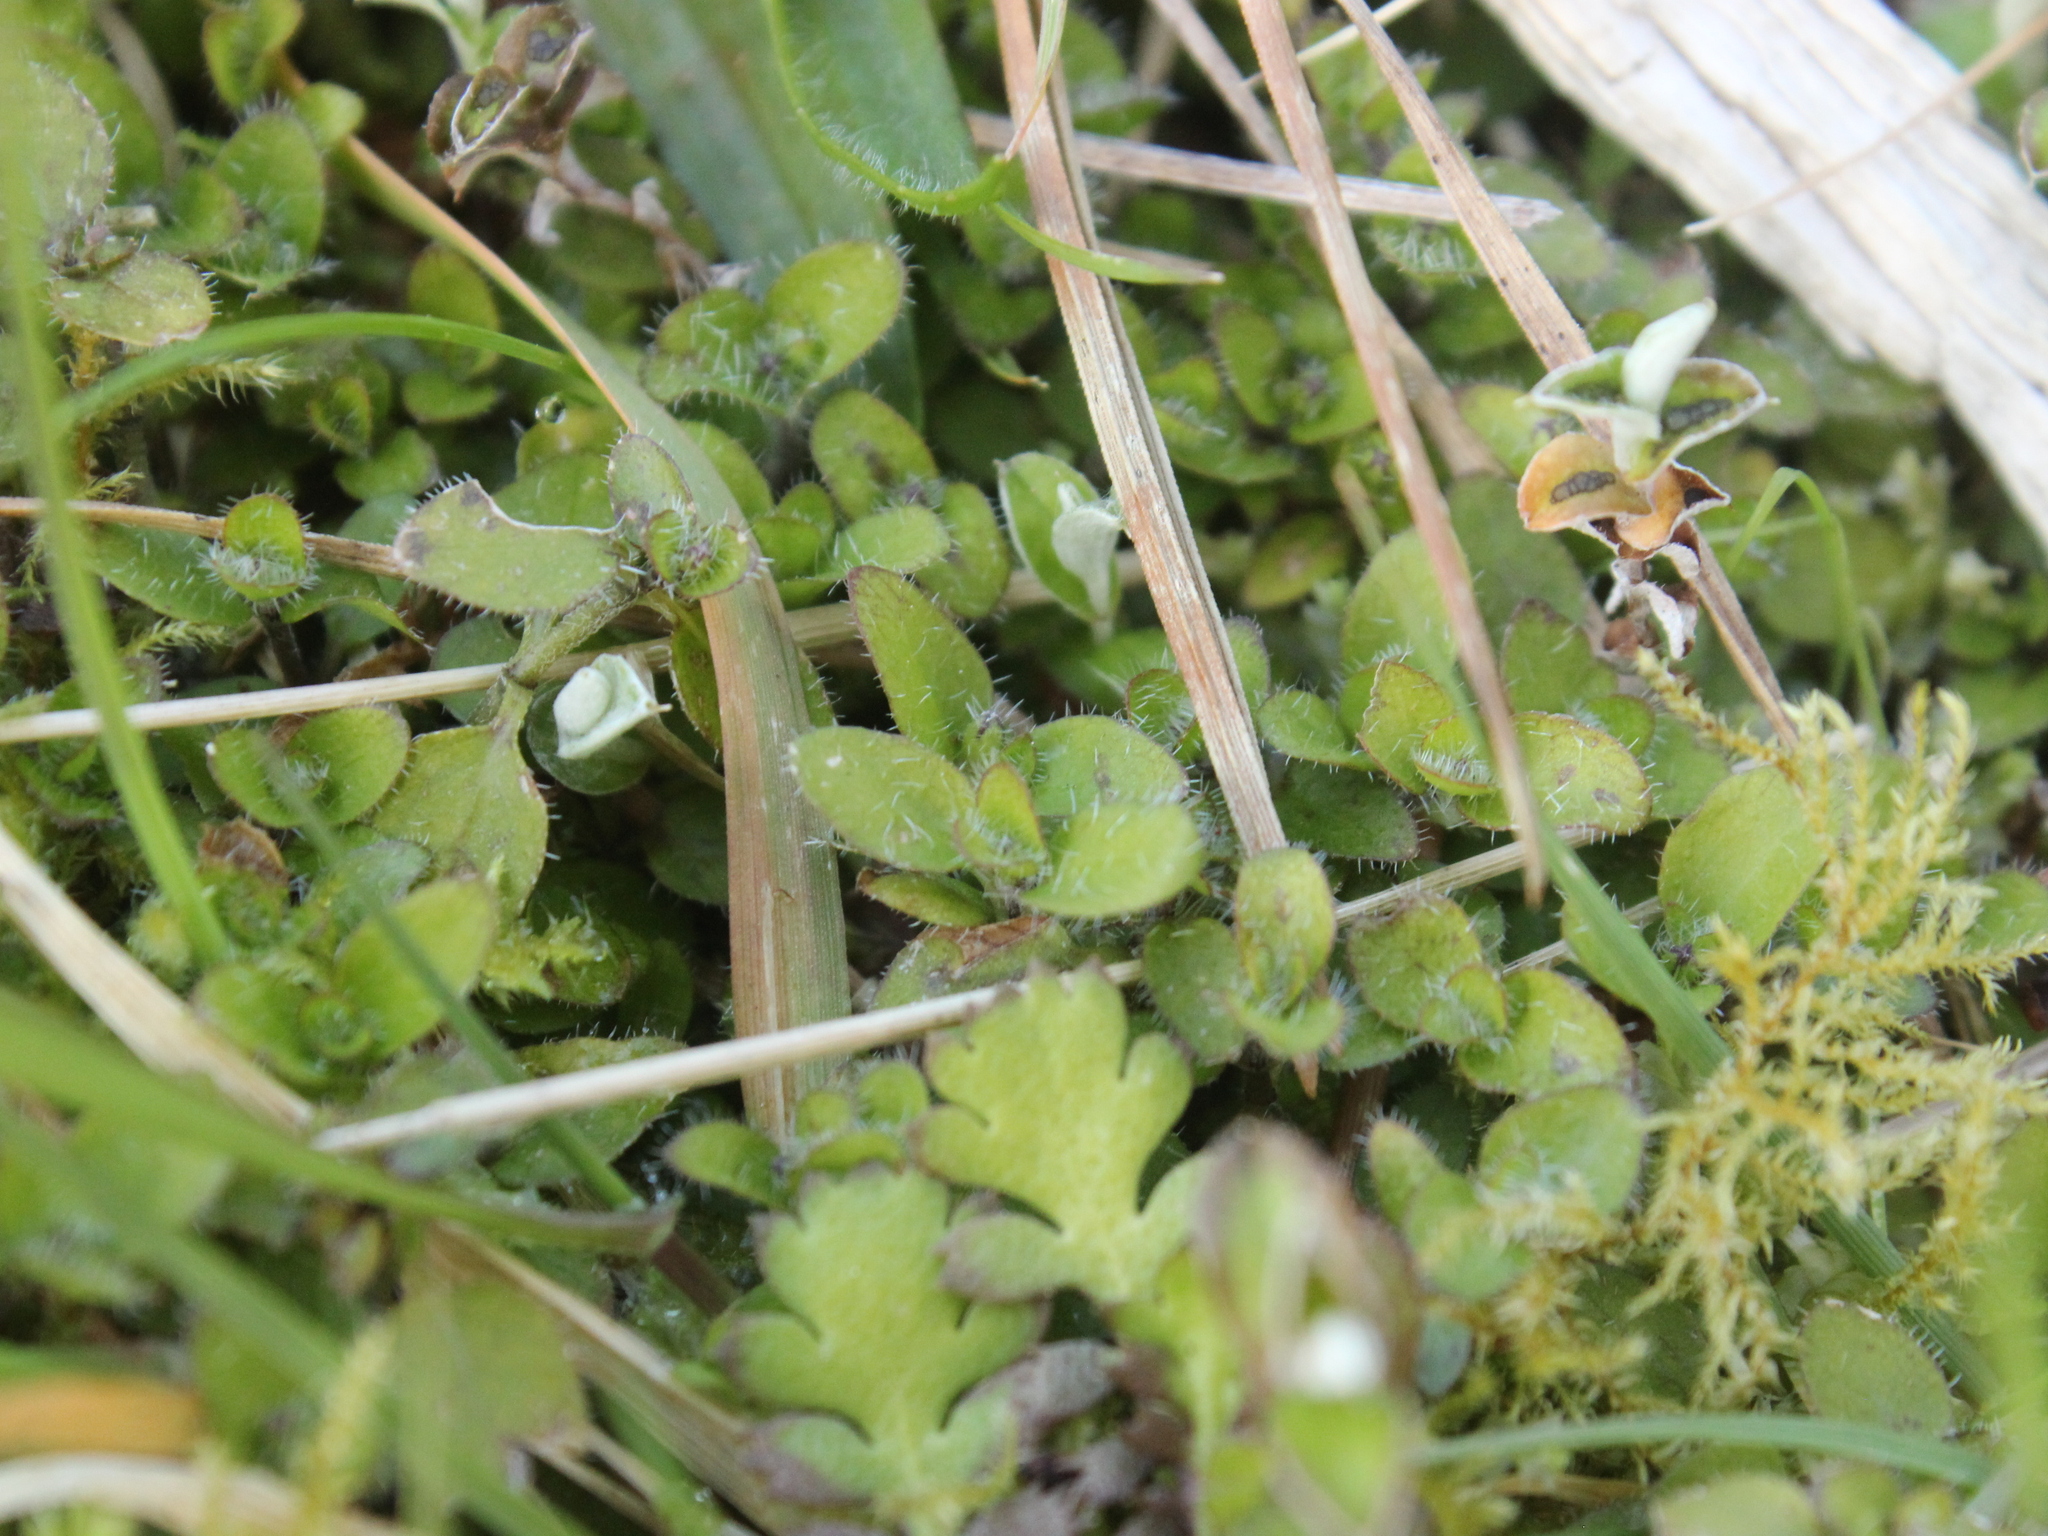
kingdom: Plantae
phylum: Tracheophyta
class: Magnoliopsida
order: Gentianales
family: Rubiaceae
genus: Leptostigma
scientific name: Leptostigma setulosum
